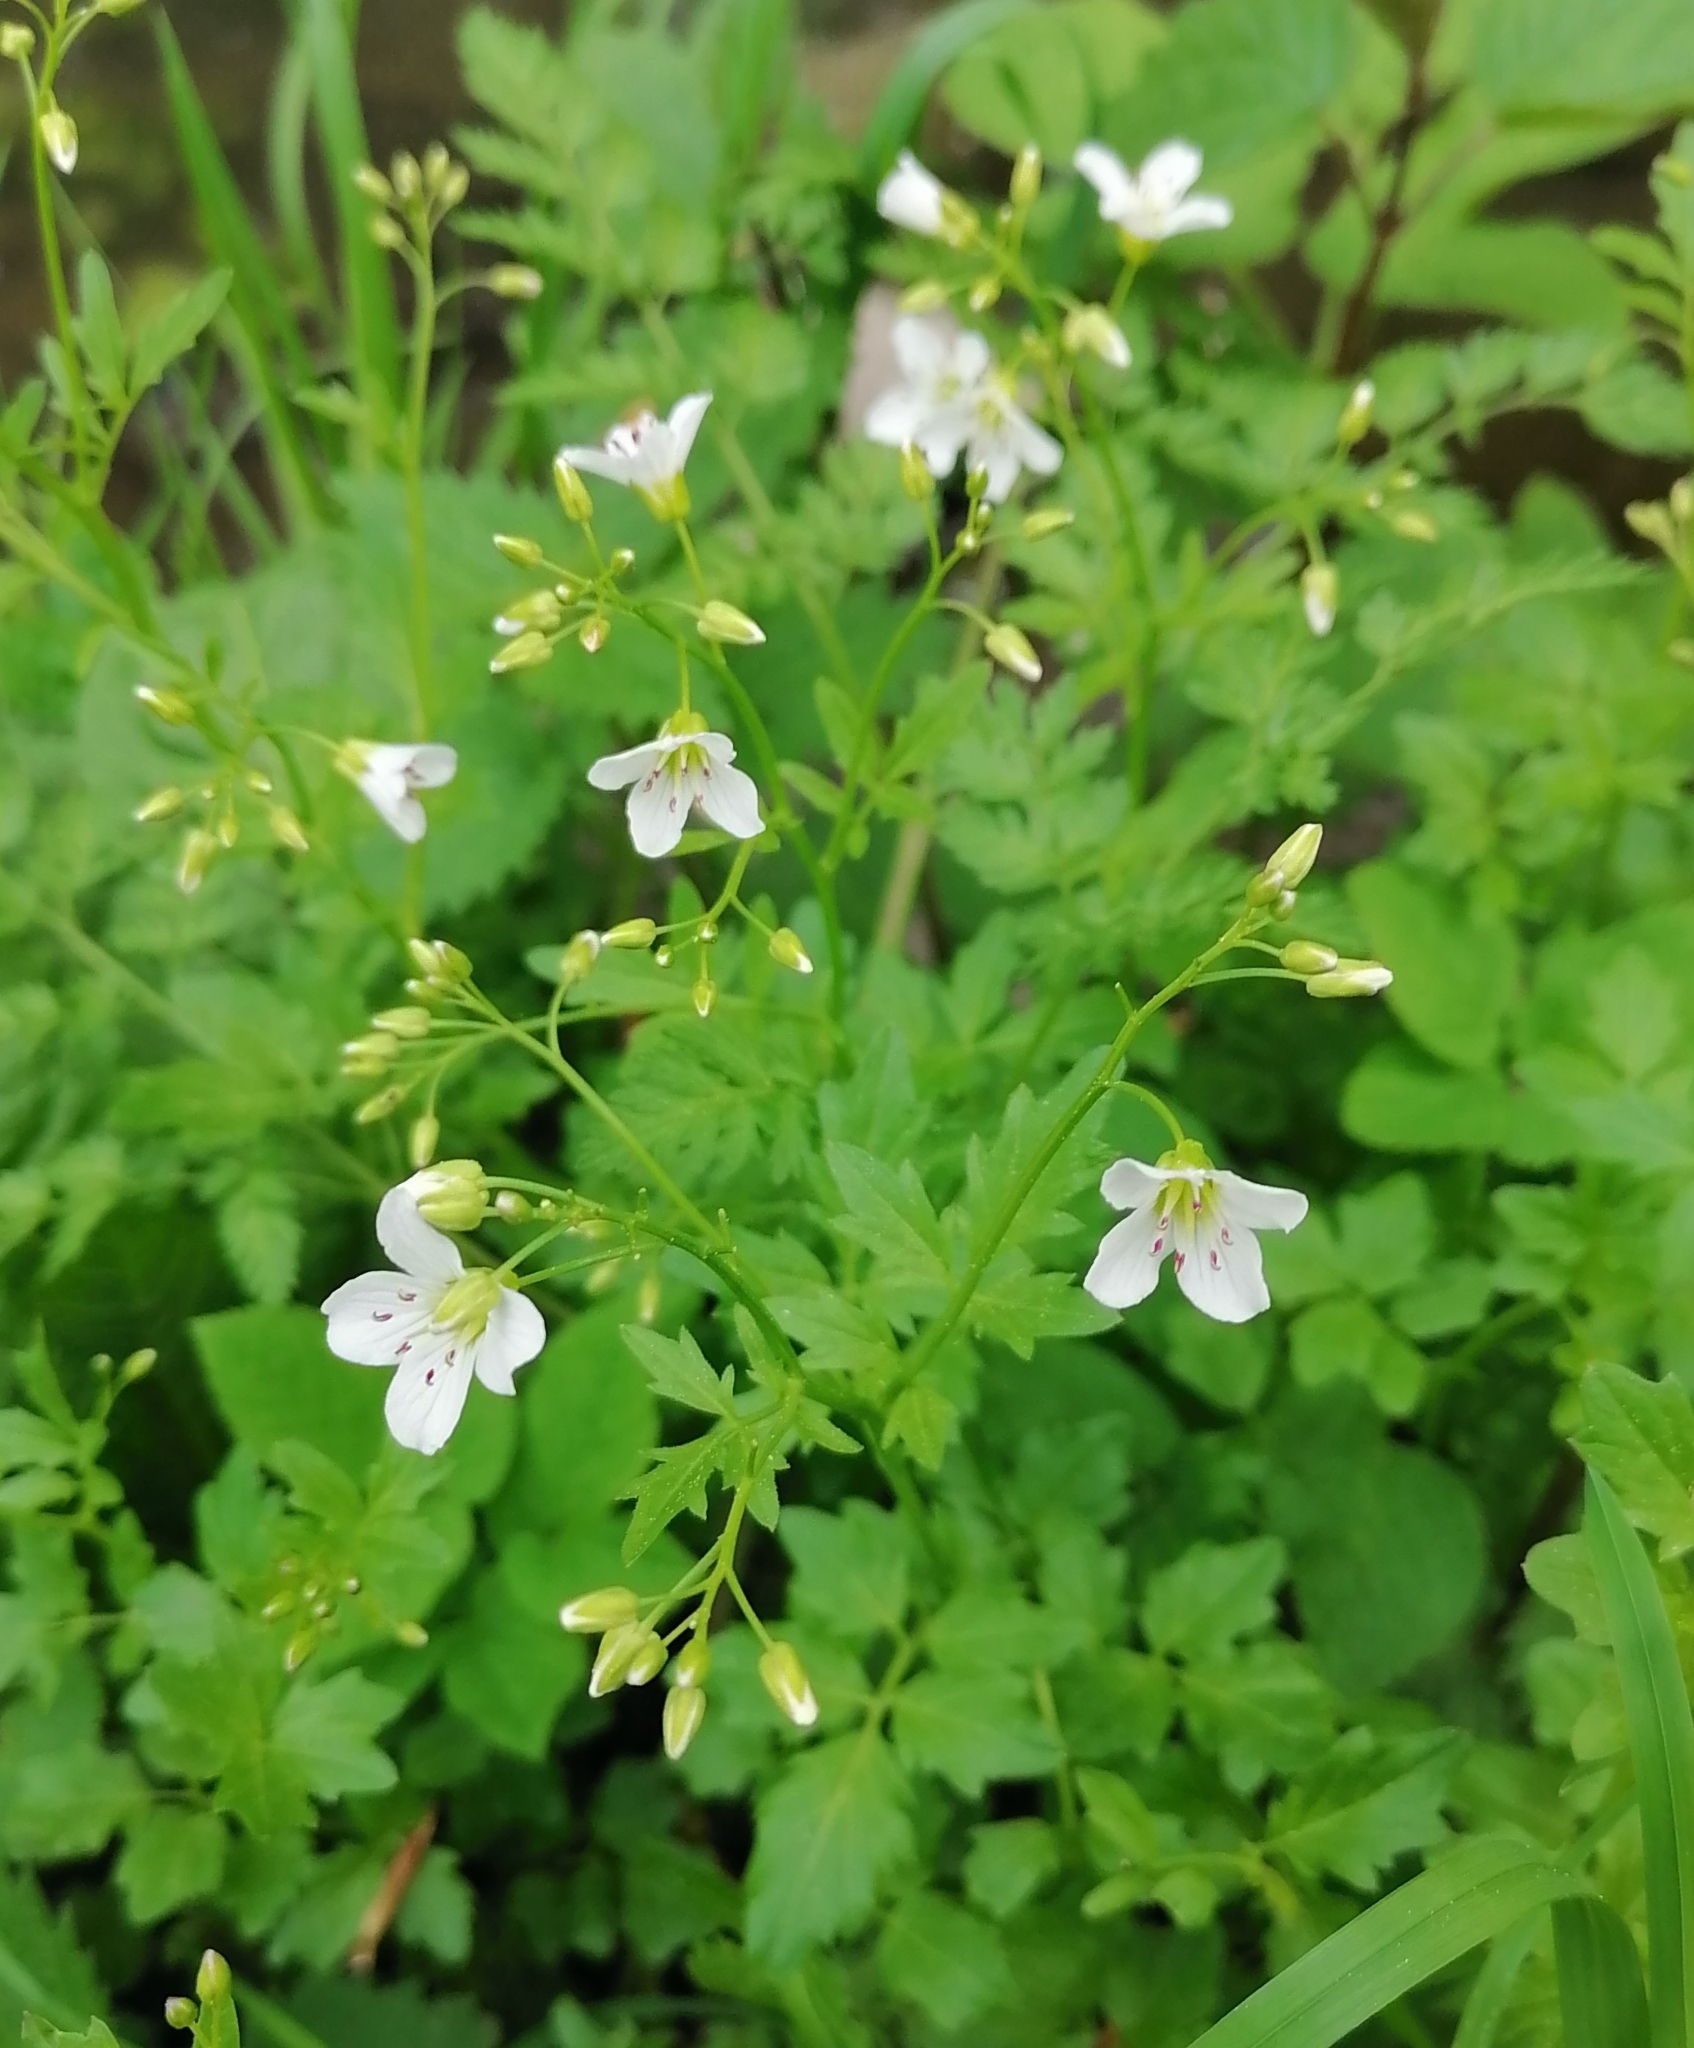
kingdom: Plantae
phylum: Tracheophyta
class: Magnoliopsida
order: Brassicales
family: Brassicaceae
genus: Cardamine
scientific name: Cardamine amara
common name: Large bitter-cress
